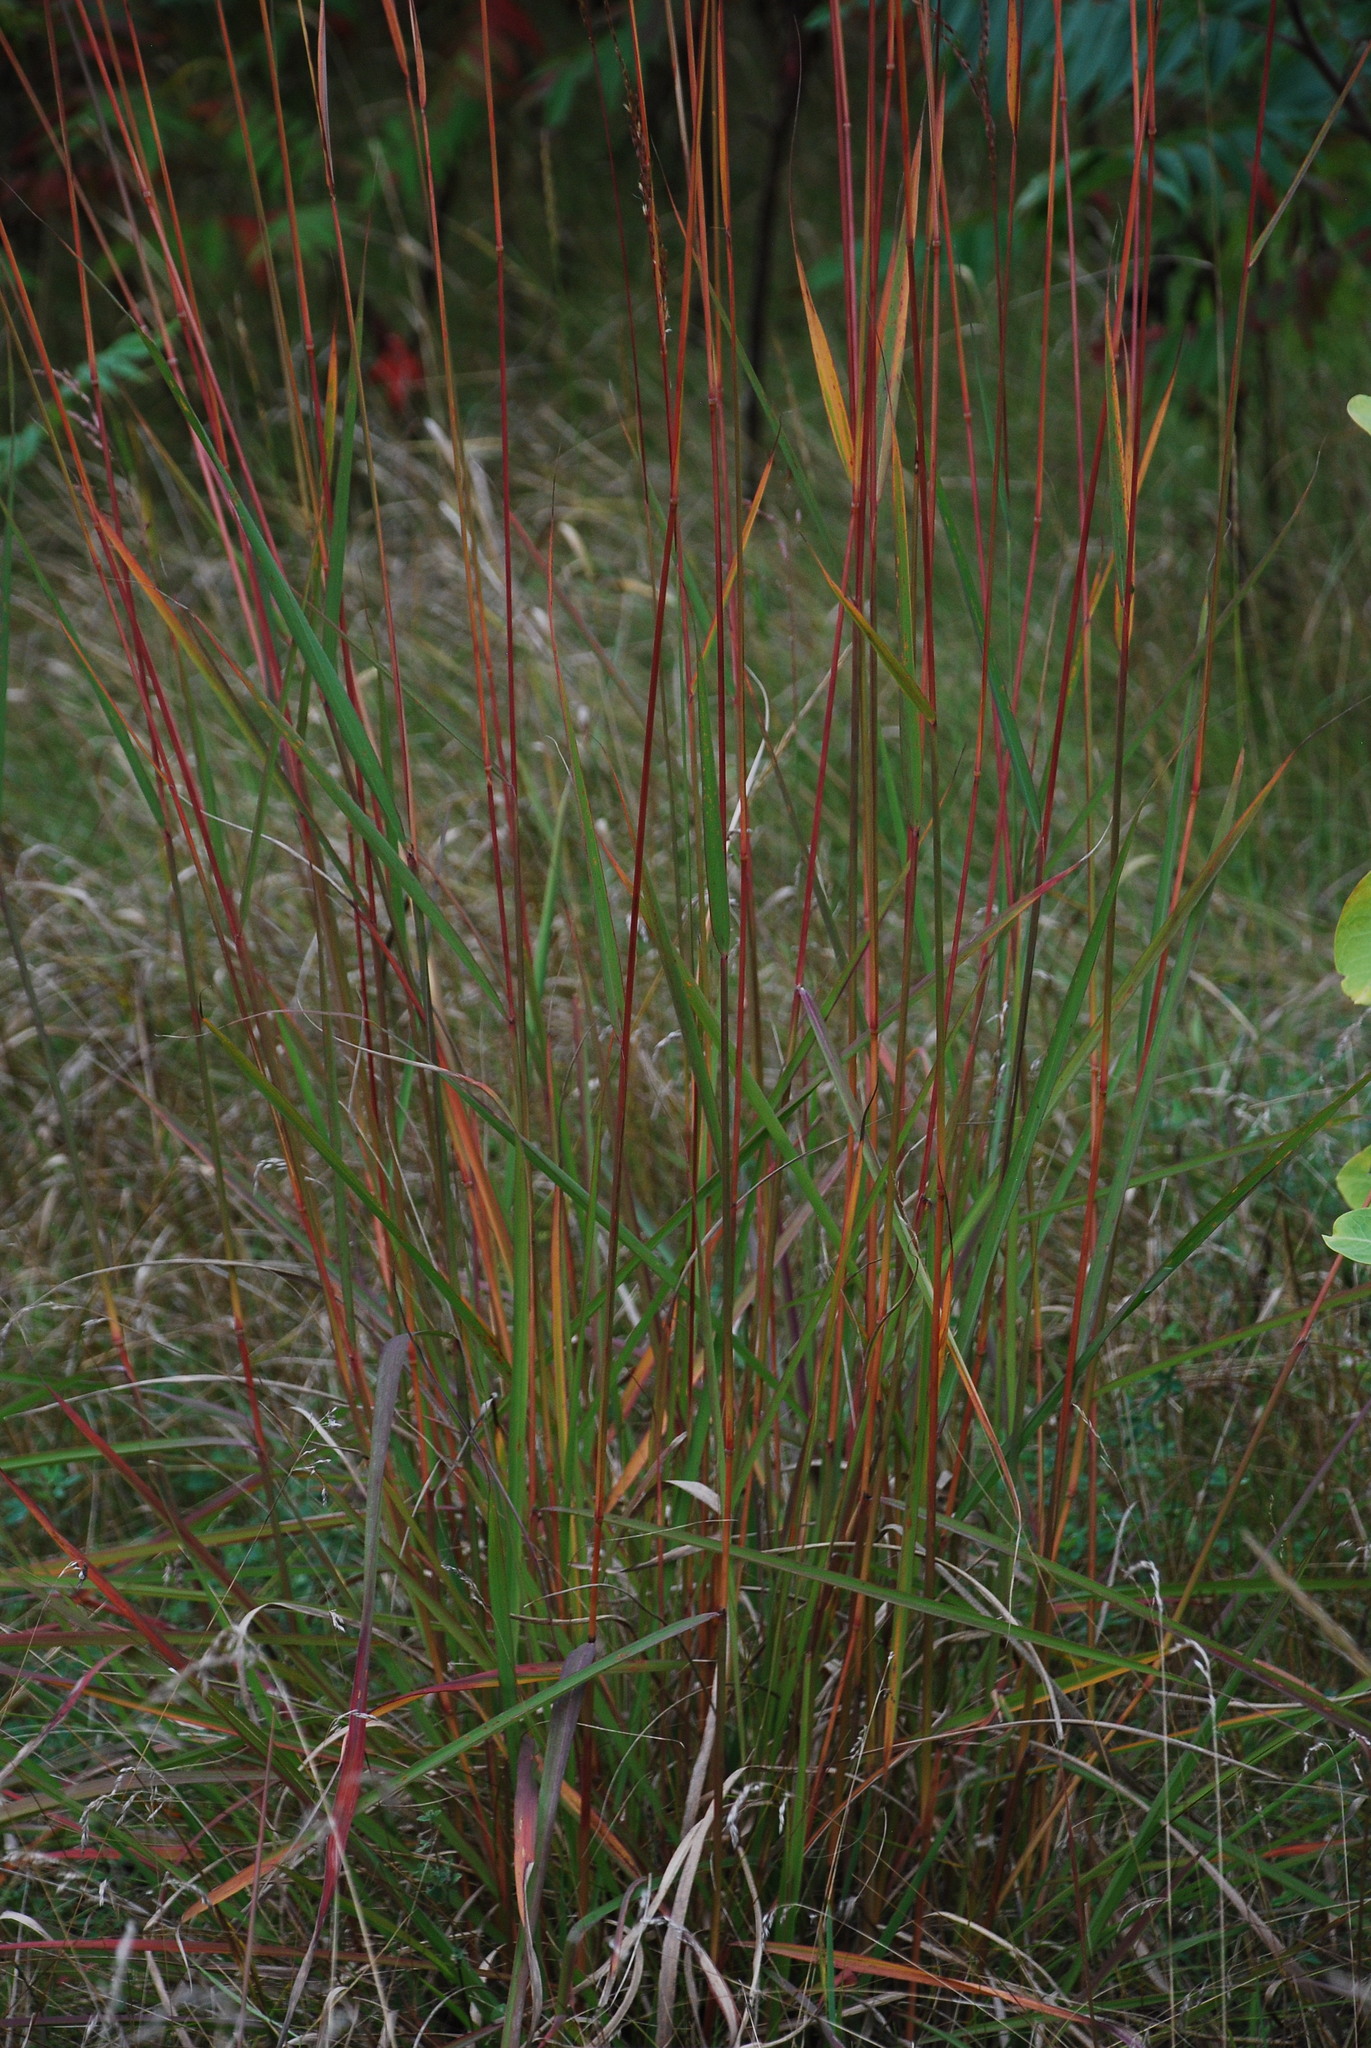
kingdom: Plantae
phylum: Tracheophyta
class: Liliopsida
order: Poales
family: Poaceae
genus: Sorghastrum
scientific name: Sorghastrum nutans
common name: Indian grass
